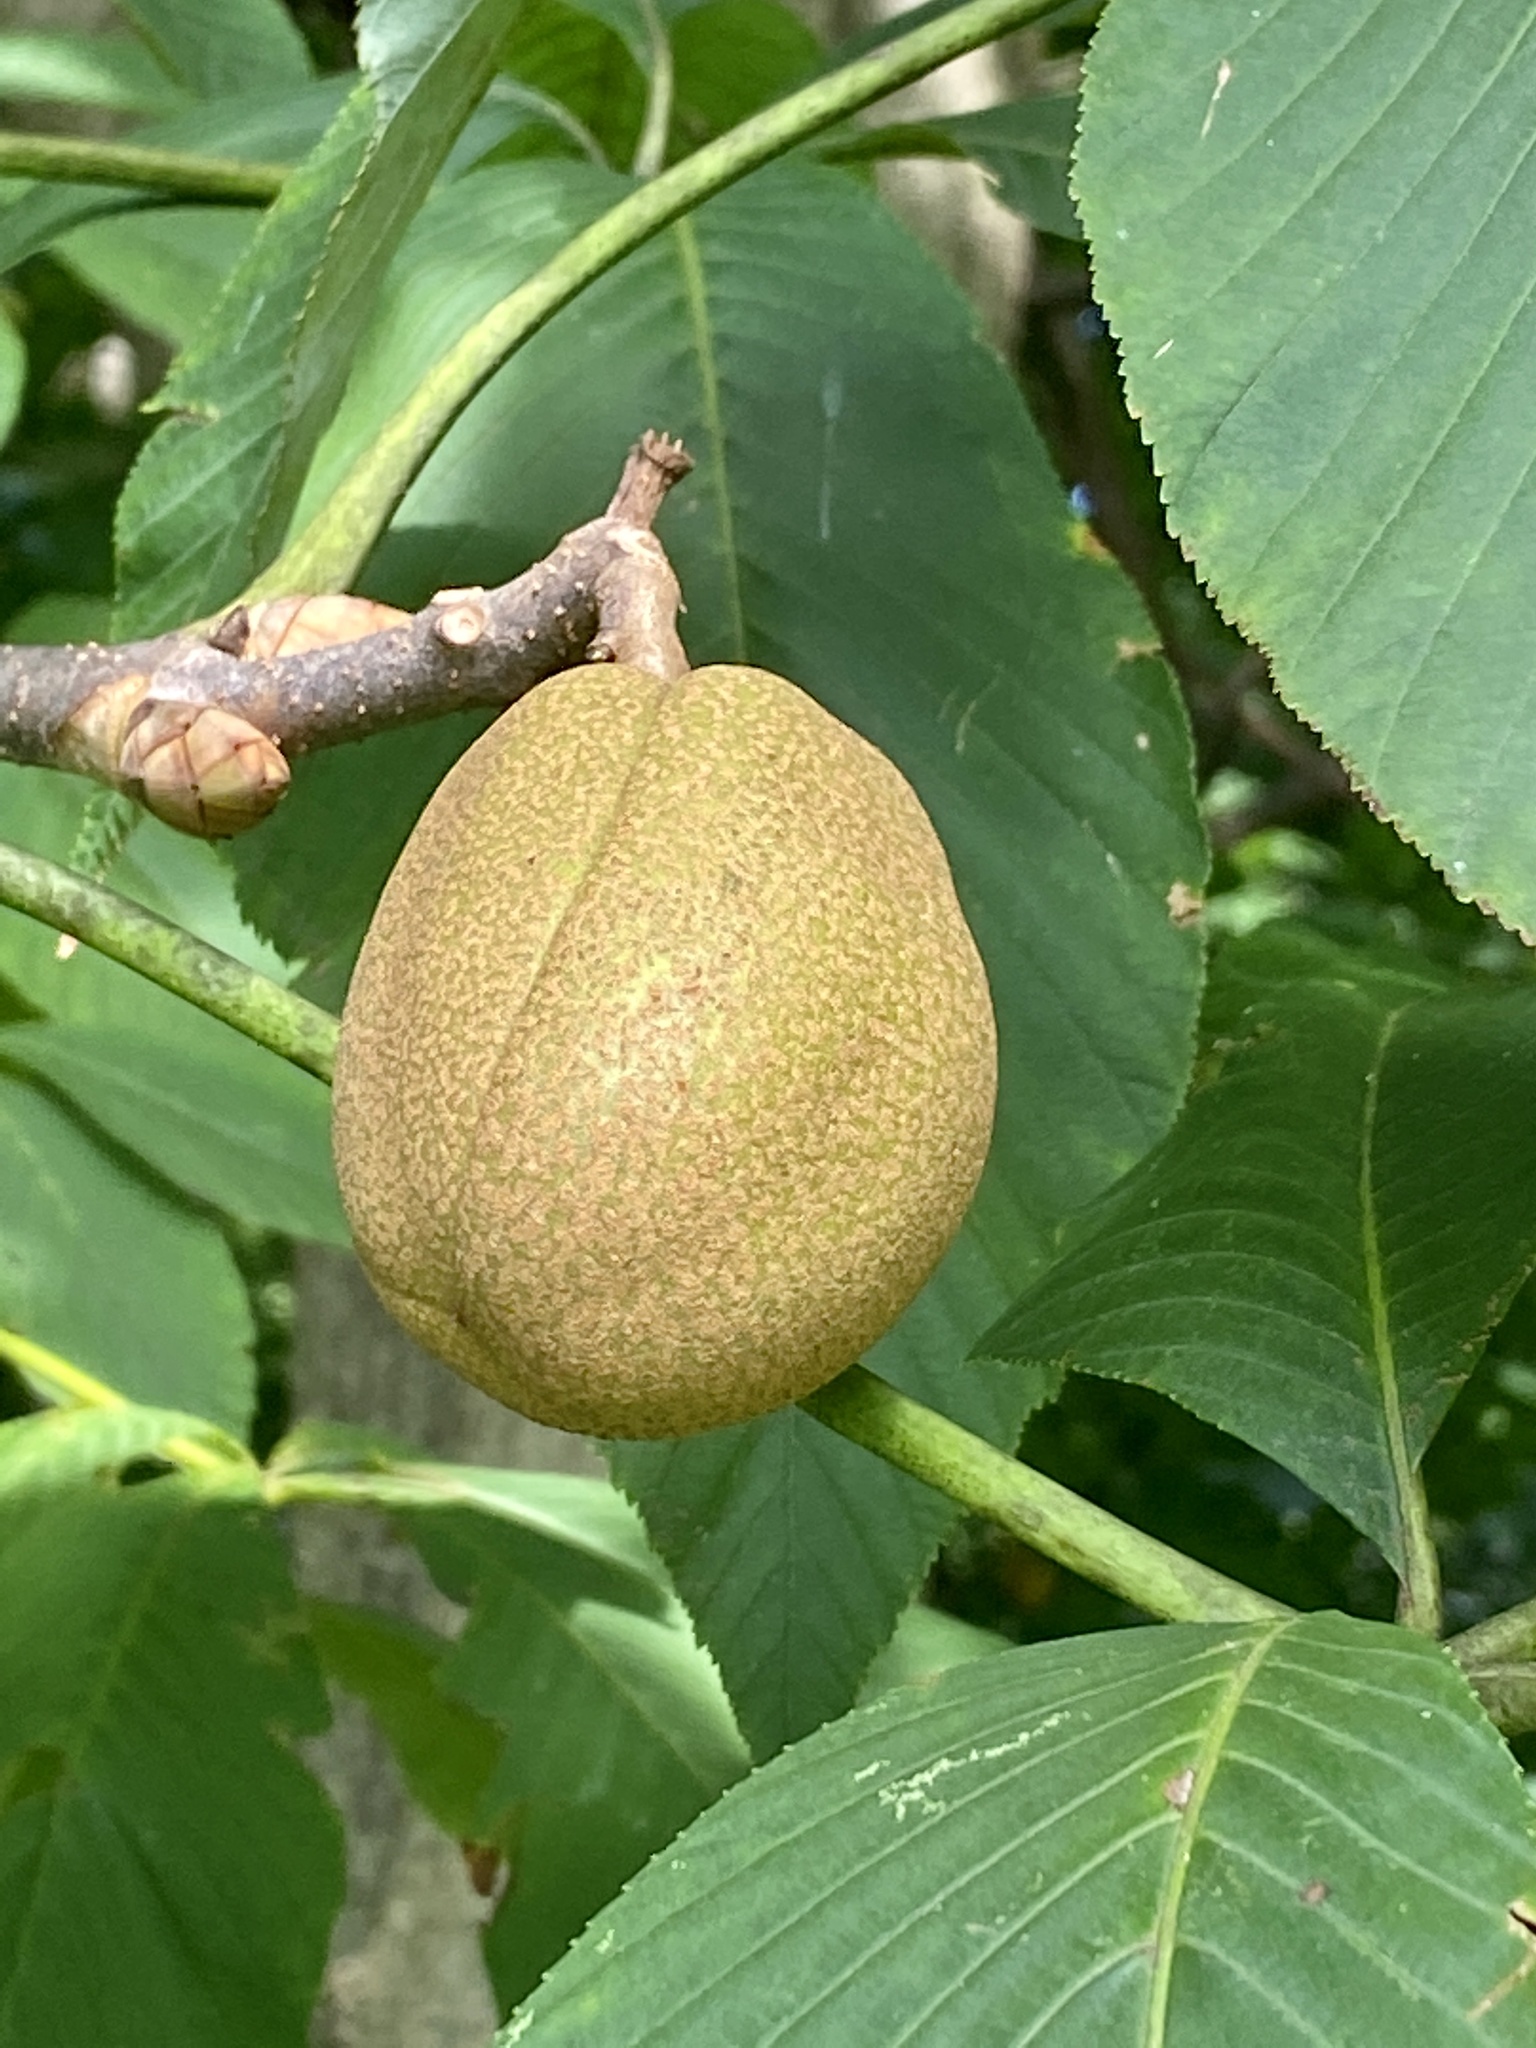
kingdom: Plantae
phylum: Tracheophyta
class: Magnoliopsida
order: Sapindales
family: Sapindaceae
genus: Aesculus
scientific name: Aesculus flava
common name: Yellow buckeye
